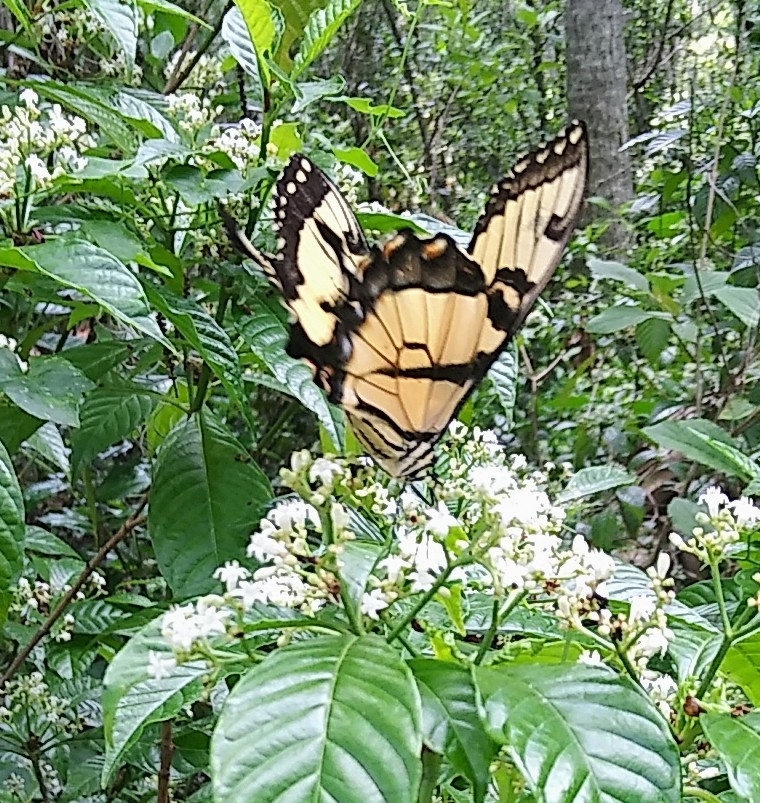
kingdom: Animalia
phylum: Arthropoda
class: Insecta
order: Lepidoptera
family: Papilionidae
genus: Papilio
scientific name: Papilio glaucus
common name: Tiger swallowtail
